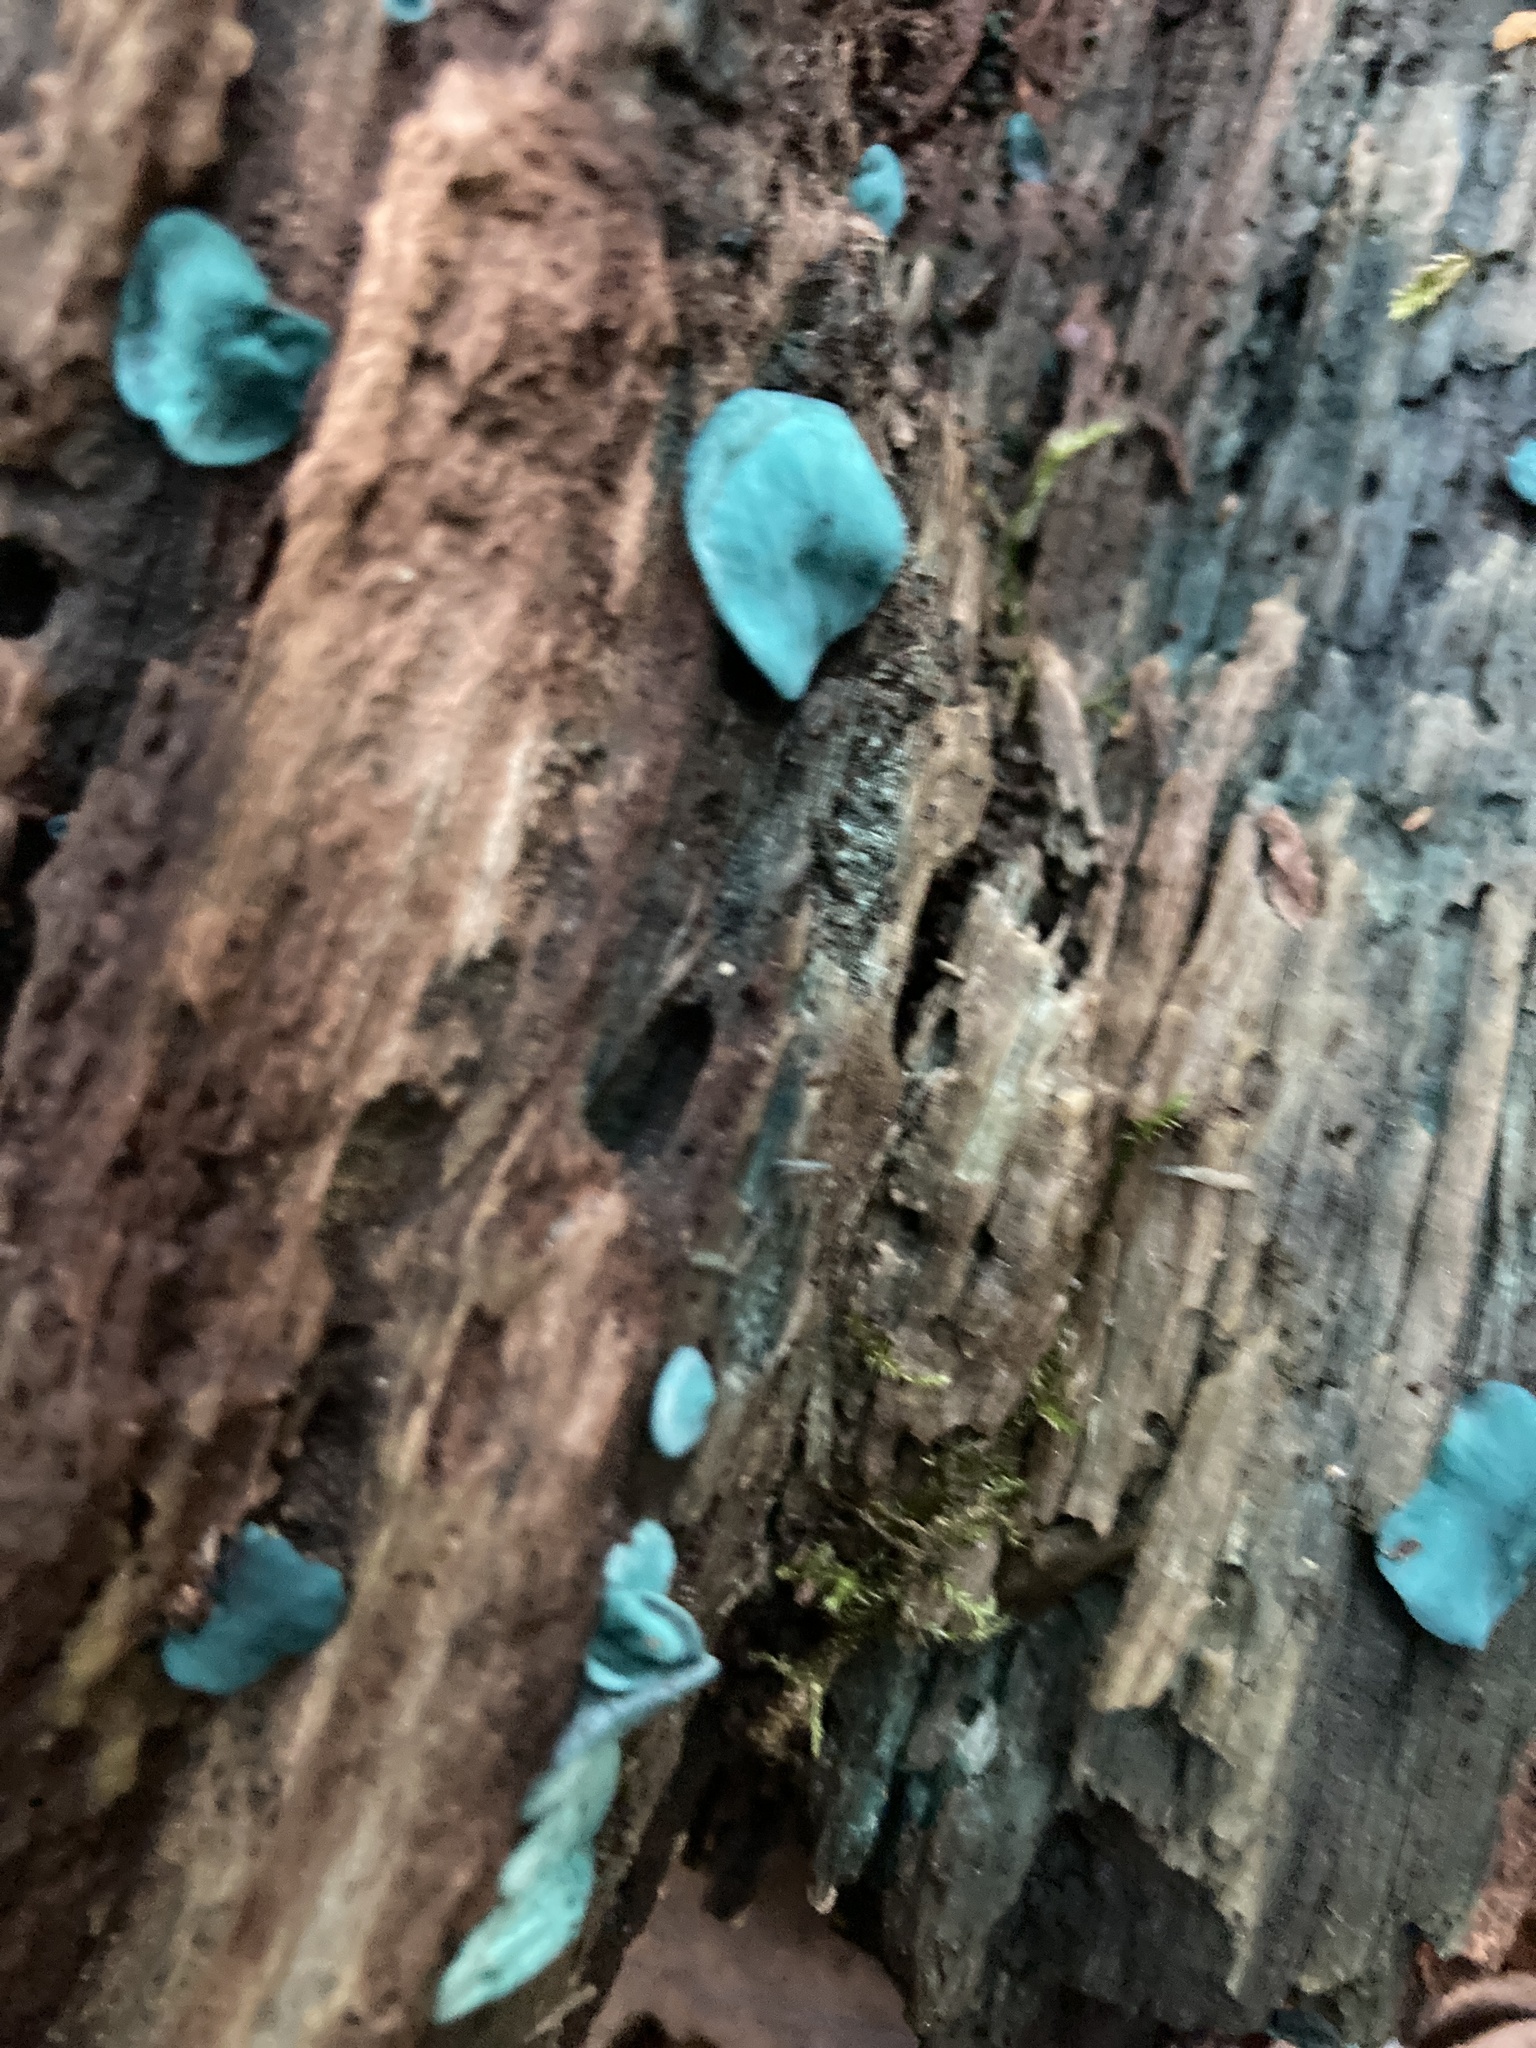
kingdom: Fungi
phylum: Ascomycota
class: Leotiomycetes
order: Helotiales
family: Chlorociboriaceae
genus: Chlorociboria
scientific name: Chlorociboria aeruginascens
